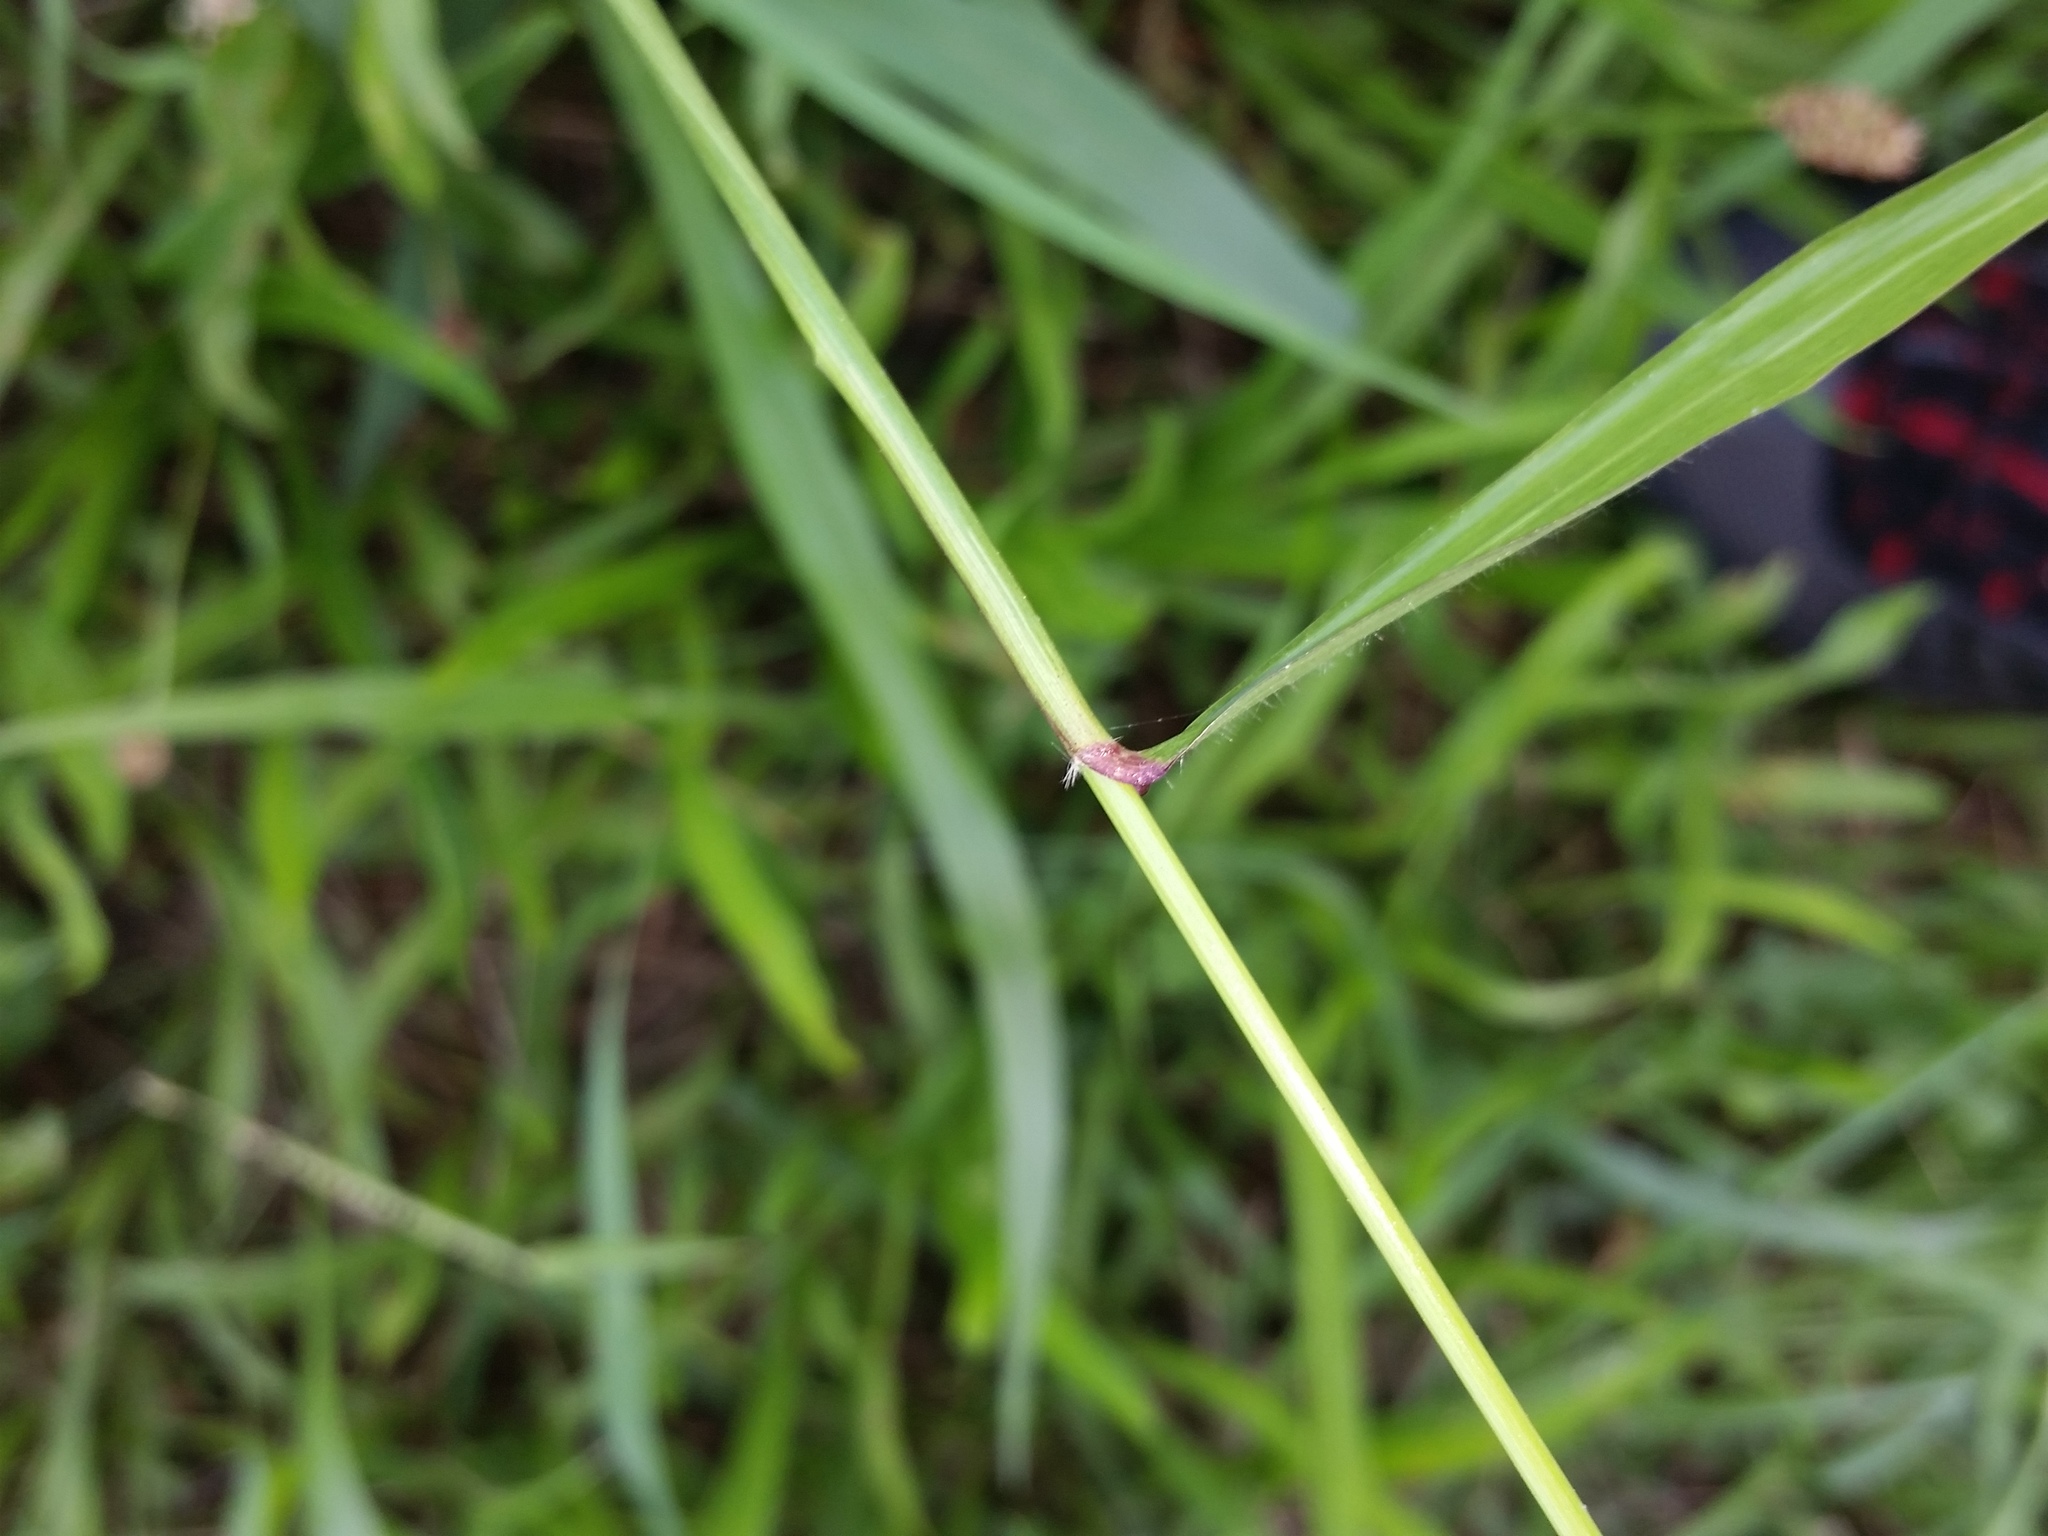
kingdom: Plantae
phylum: Tracheophyta
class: Liliopsida
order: Poales
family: Poaceae
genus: Tridens
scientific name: Tridens flavus
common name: Purpletop
